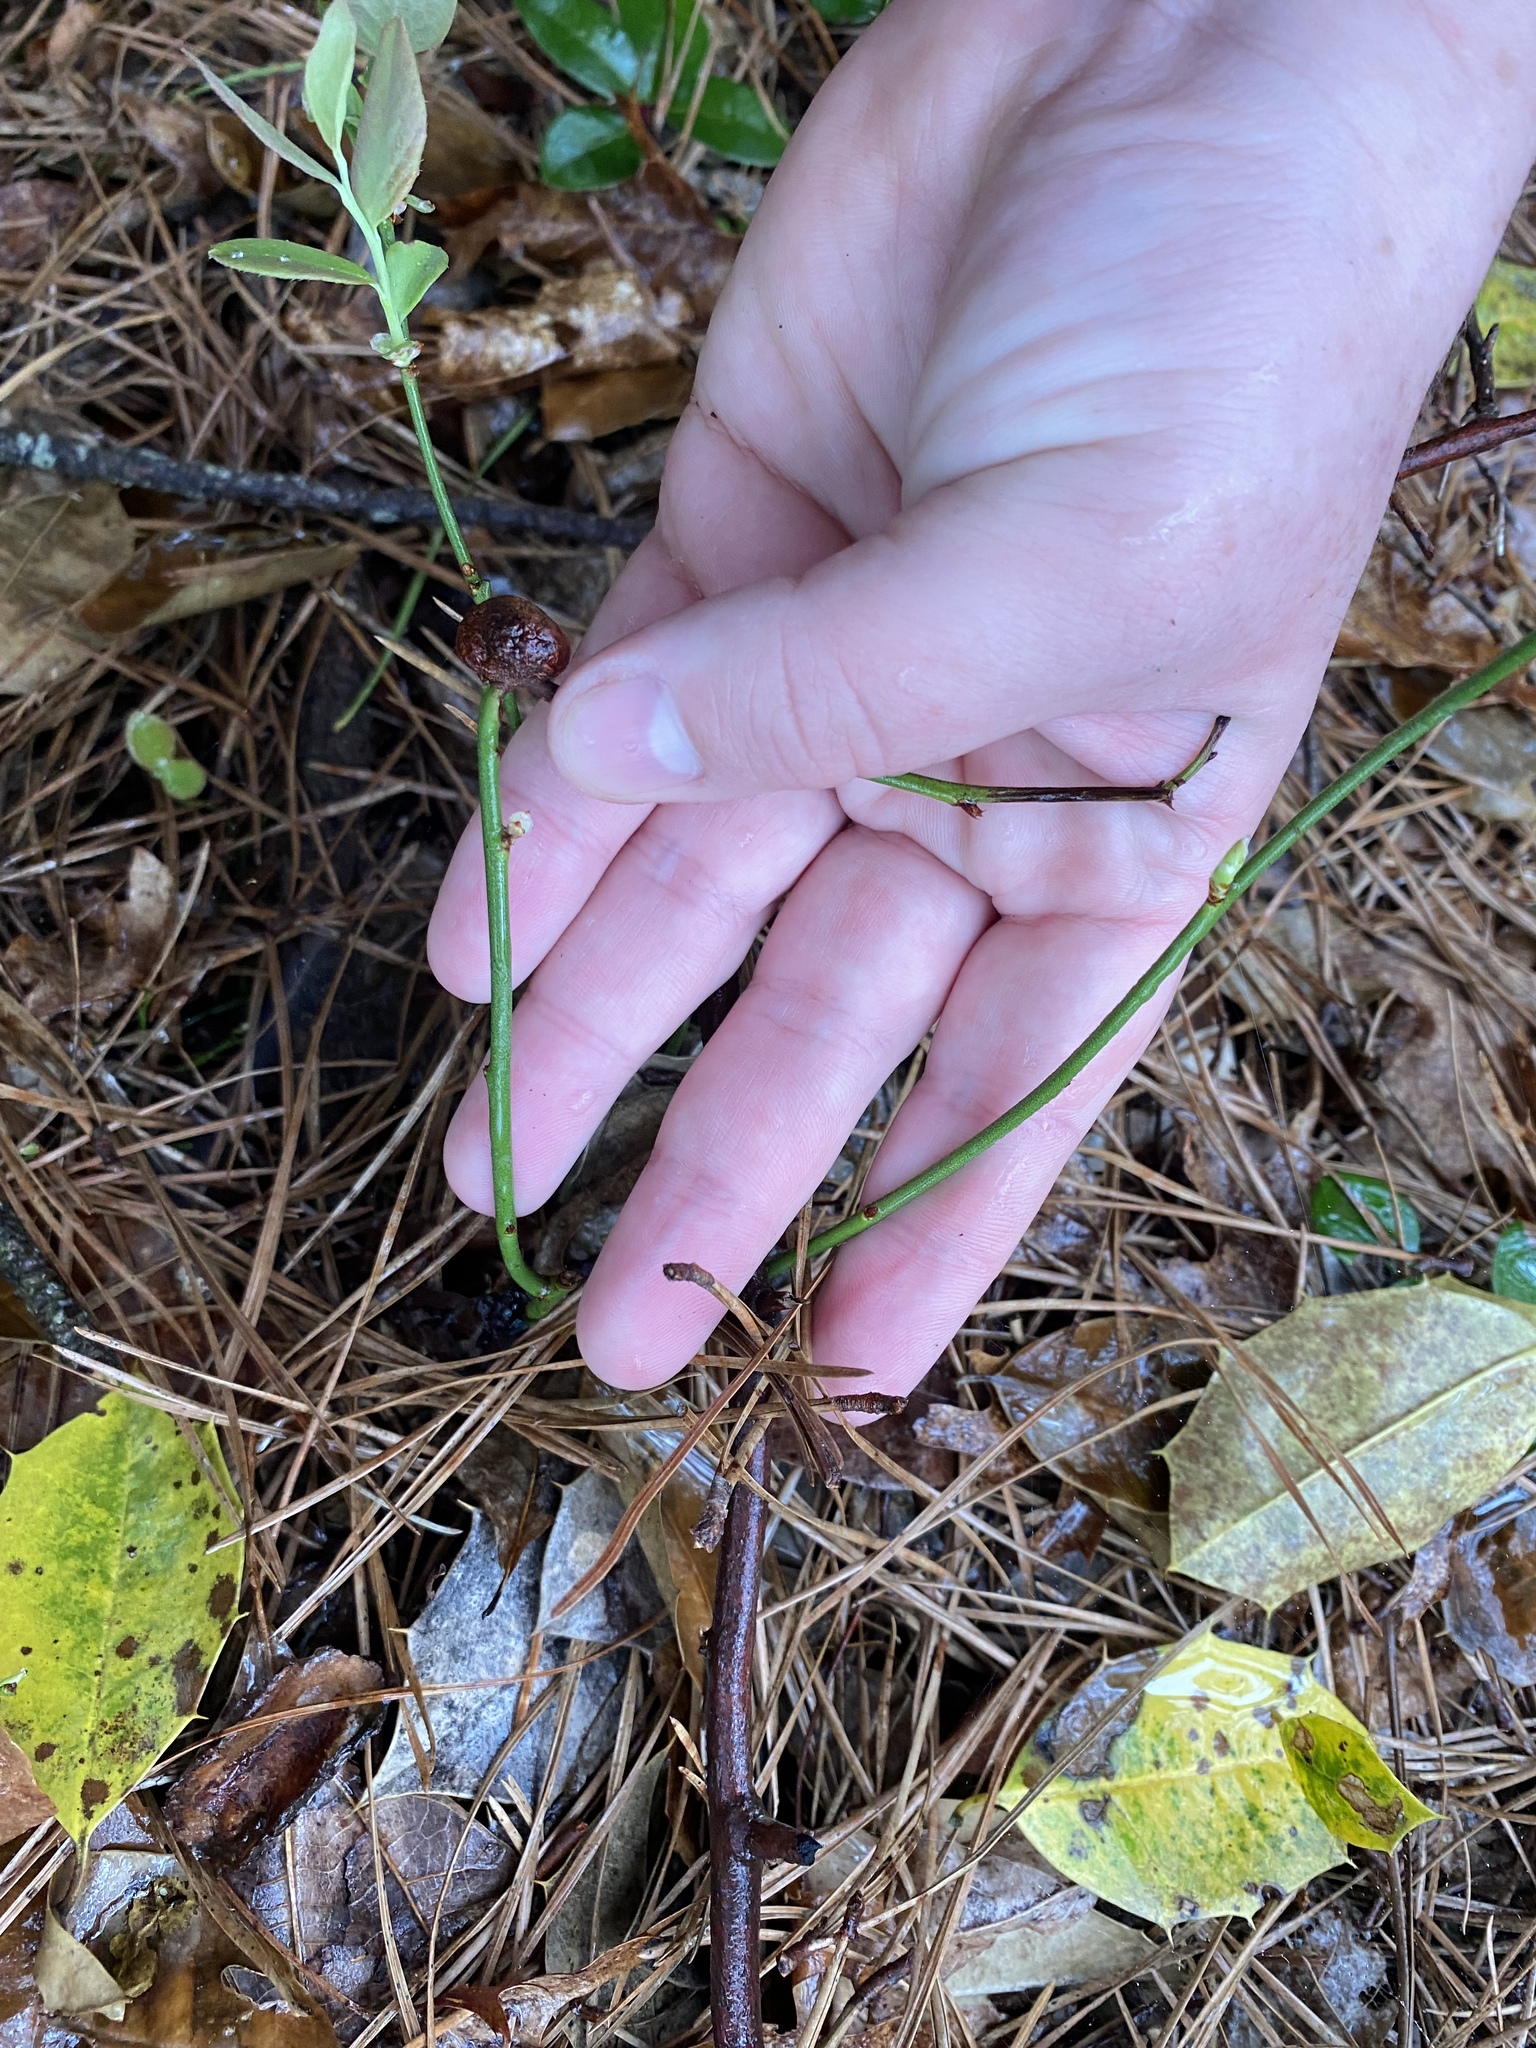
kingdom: Animalia
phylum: Arthropoda
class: Insecta
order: Hymenoptera
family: Pteromalidae
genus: Hemadas
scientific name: Hemadas nubilipennis
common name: Blueberry stem gall wasp
